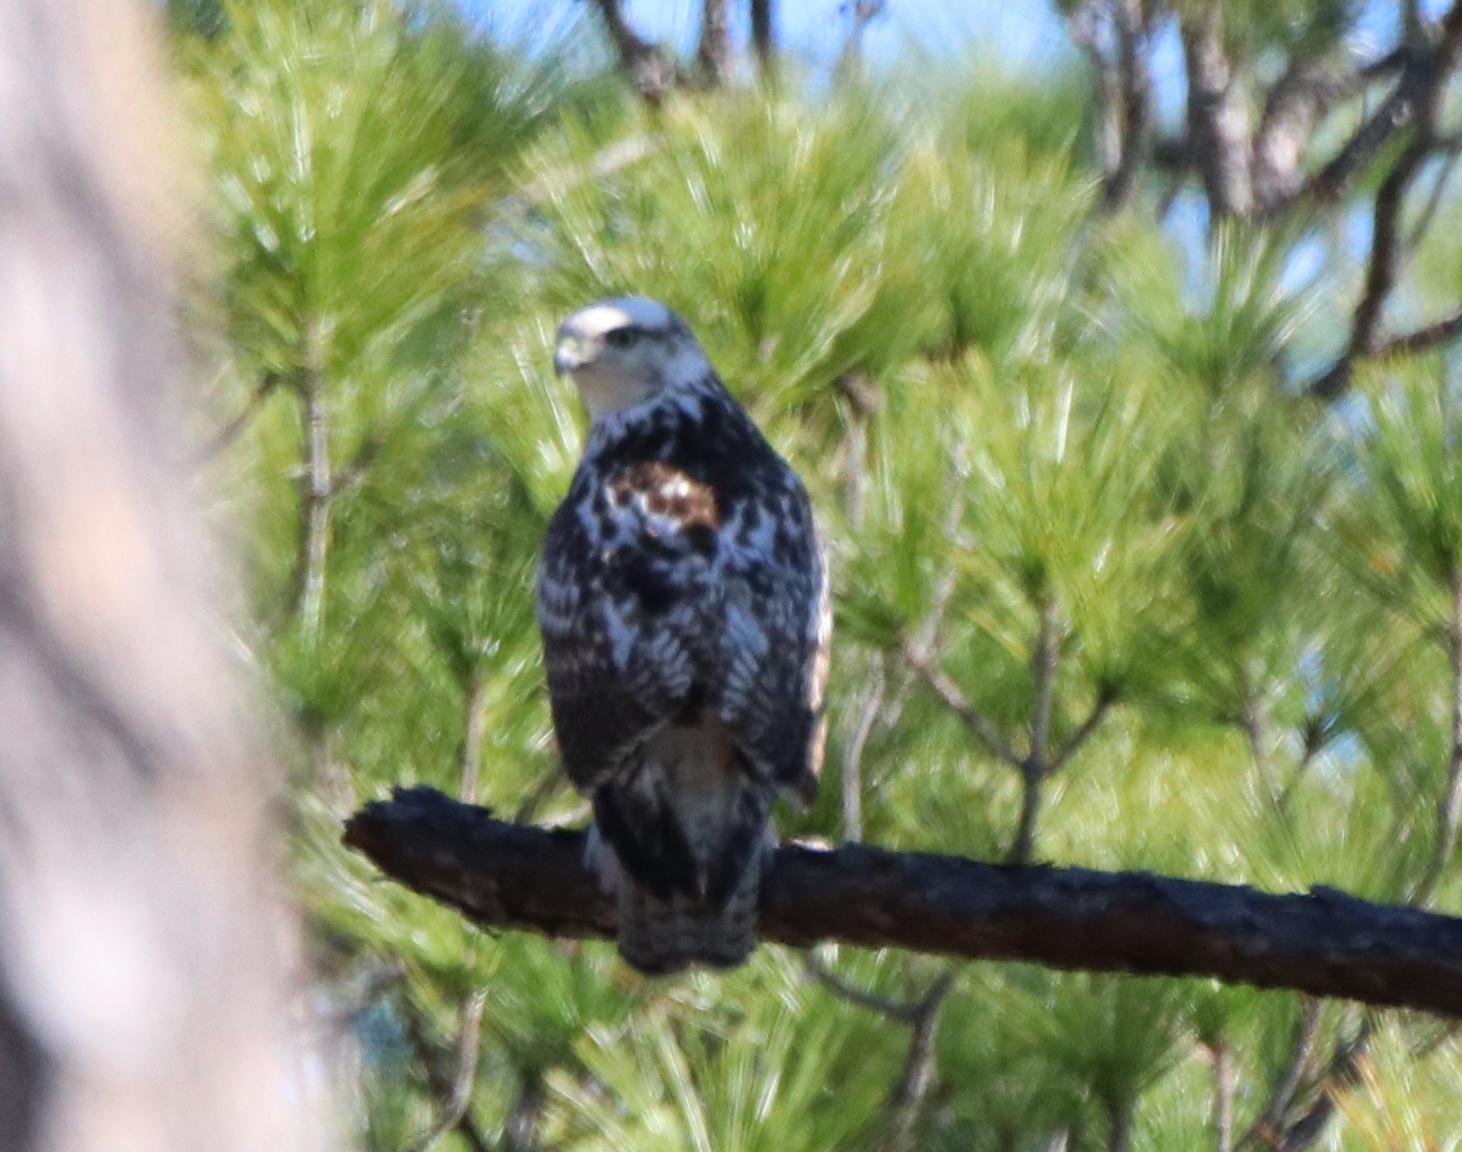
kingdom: Animalia
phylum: Chordata
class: Aves
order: Accipitriformes
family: Accipitridae
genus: Buteo
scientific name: Buteo jamaicensis
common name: Red-tailed hawk
